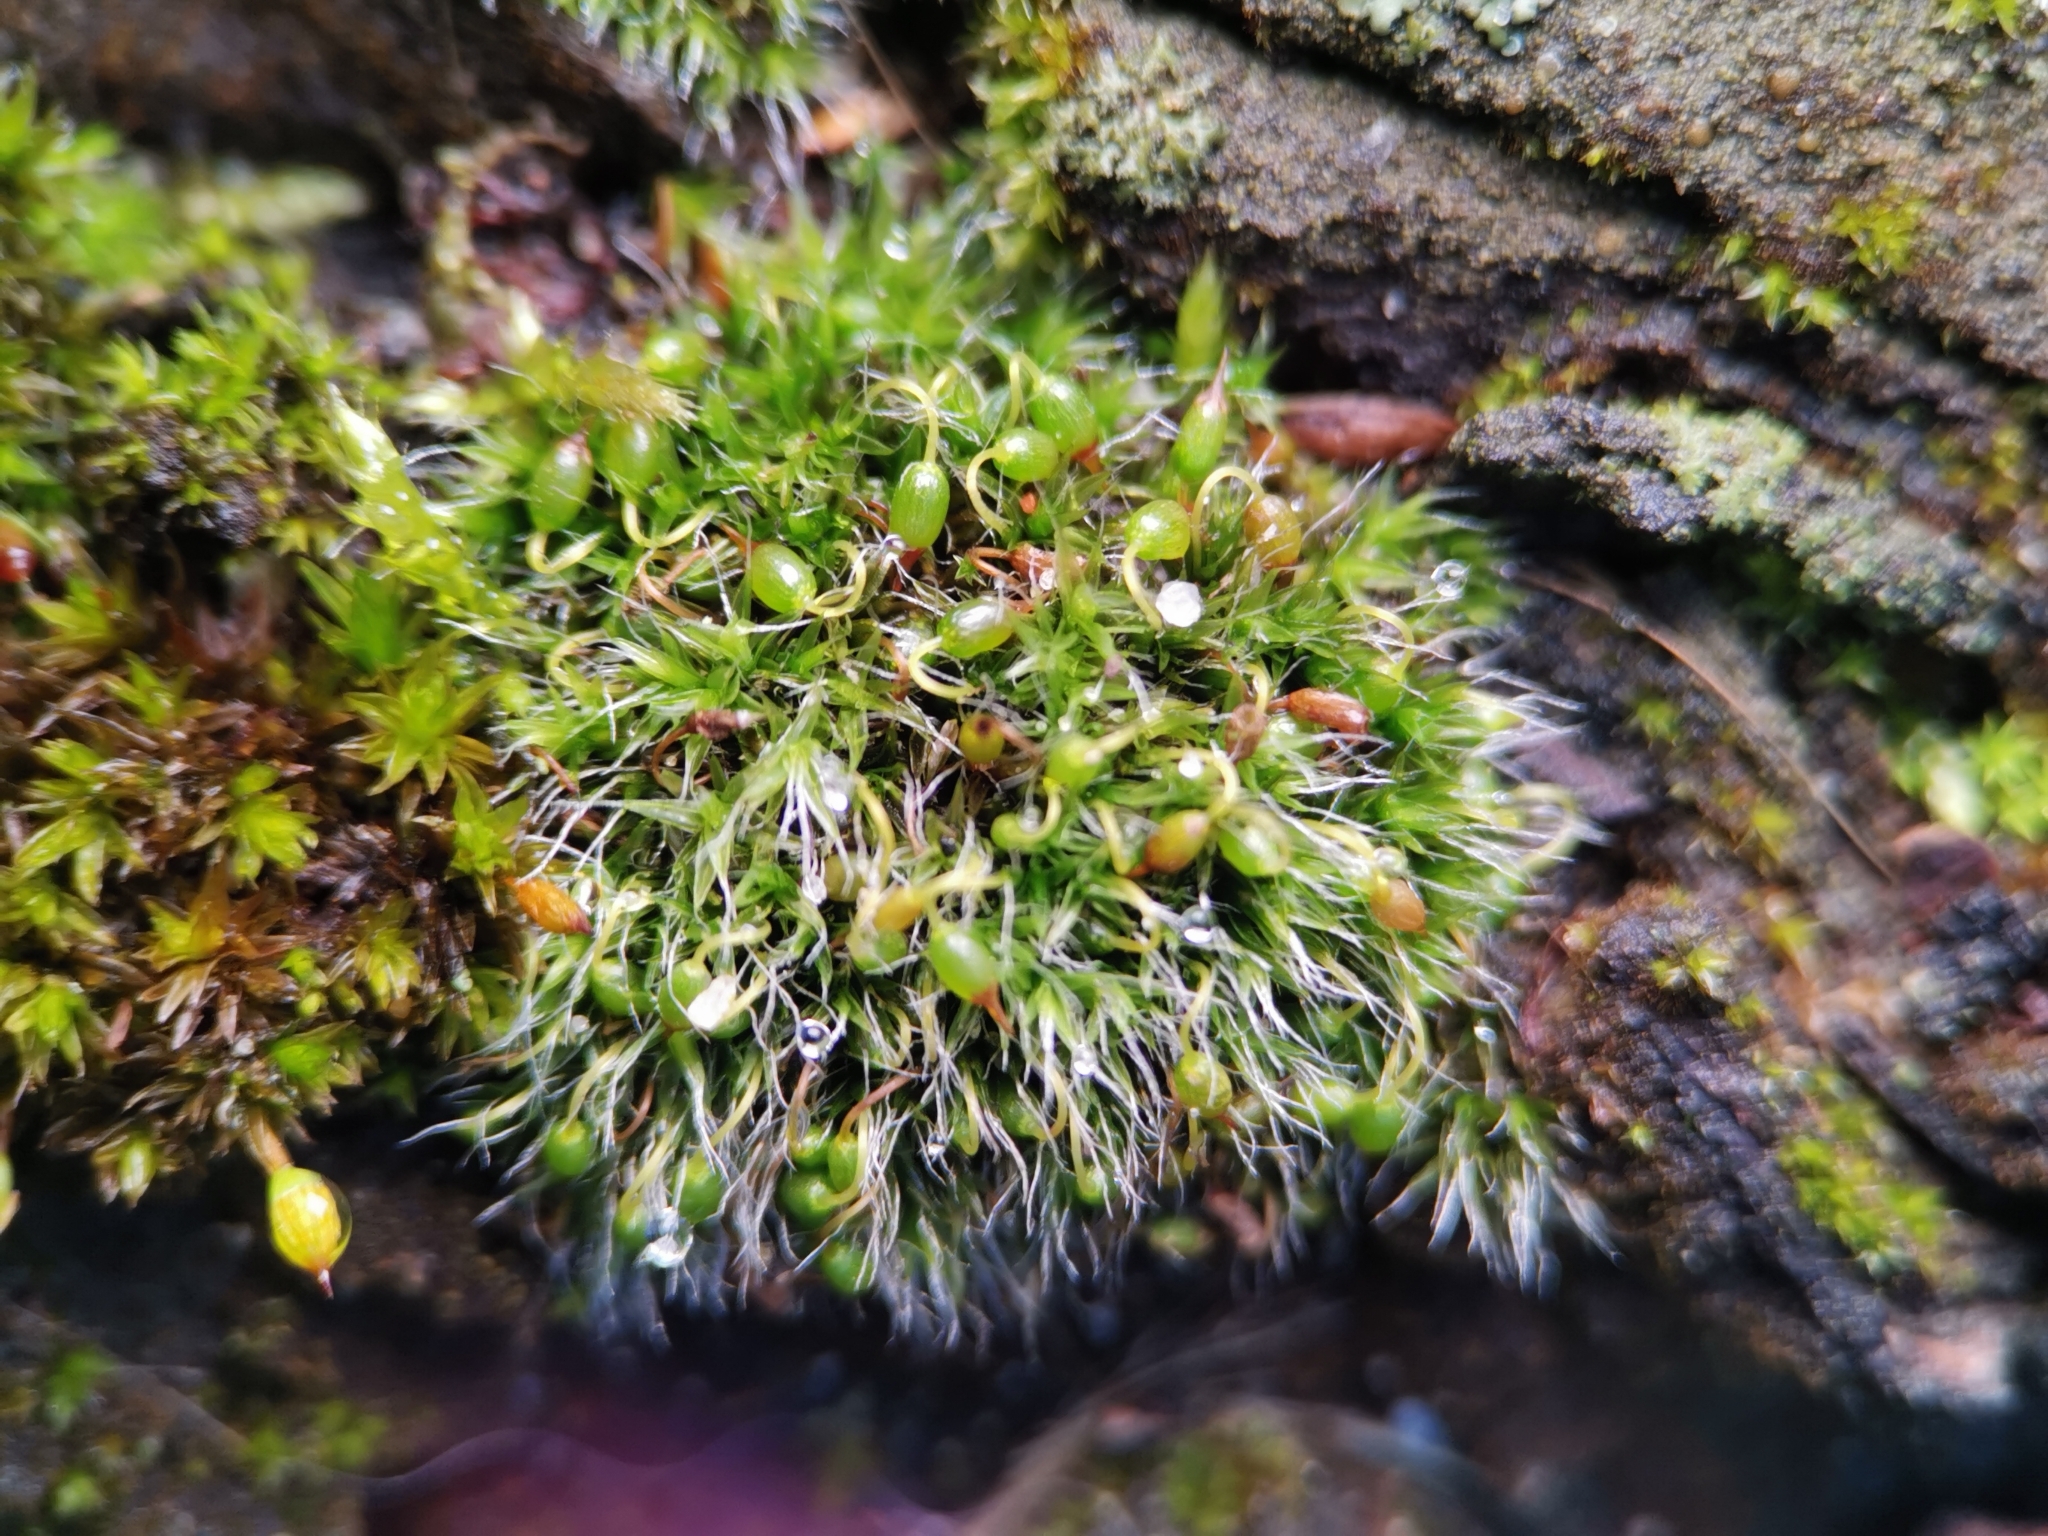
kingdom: Plantae
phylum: Bryophyta
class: Bryopsida
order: Grimmiales
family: Grimmiaceae
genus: Grimmia
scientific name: Grimmia pulvinata
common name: Grey-cushioned grimmia
